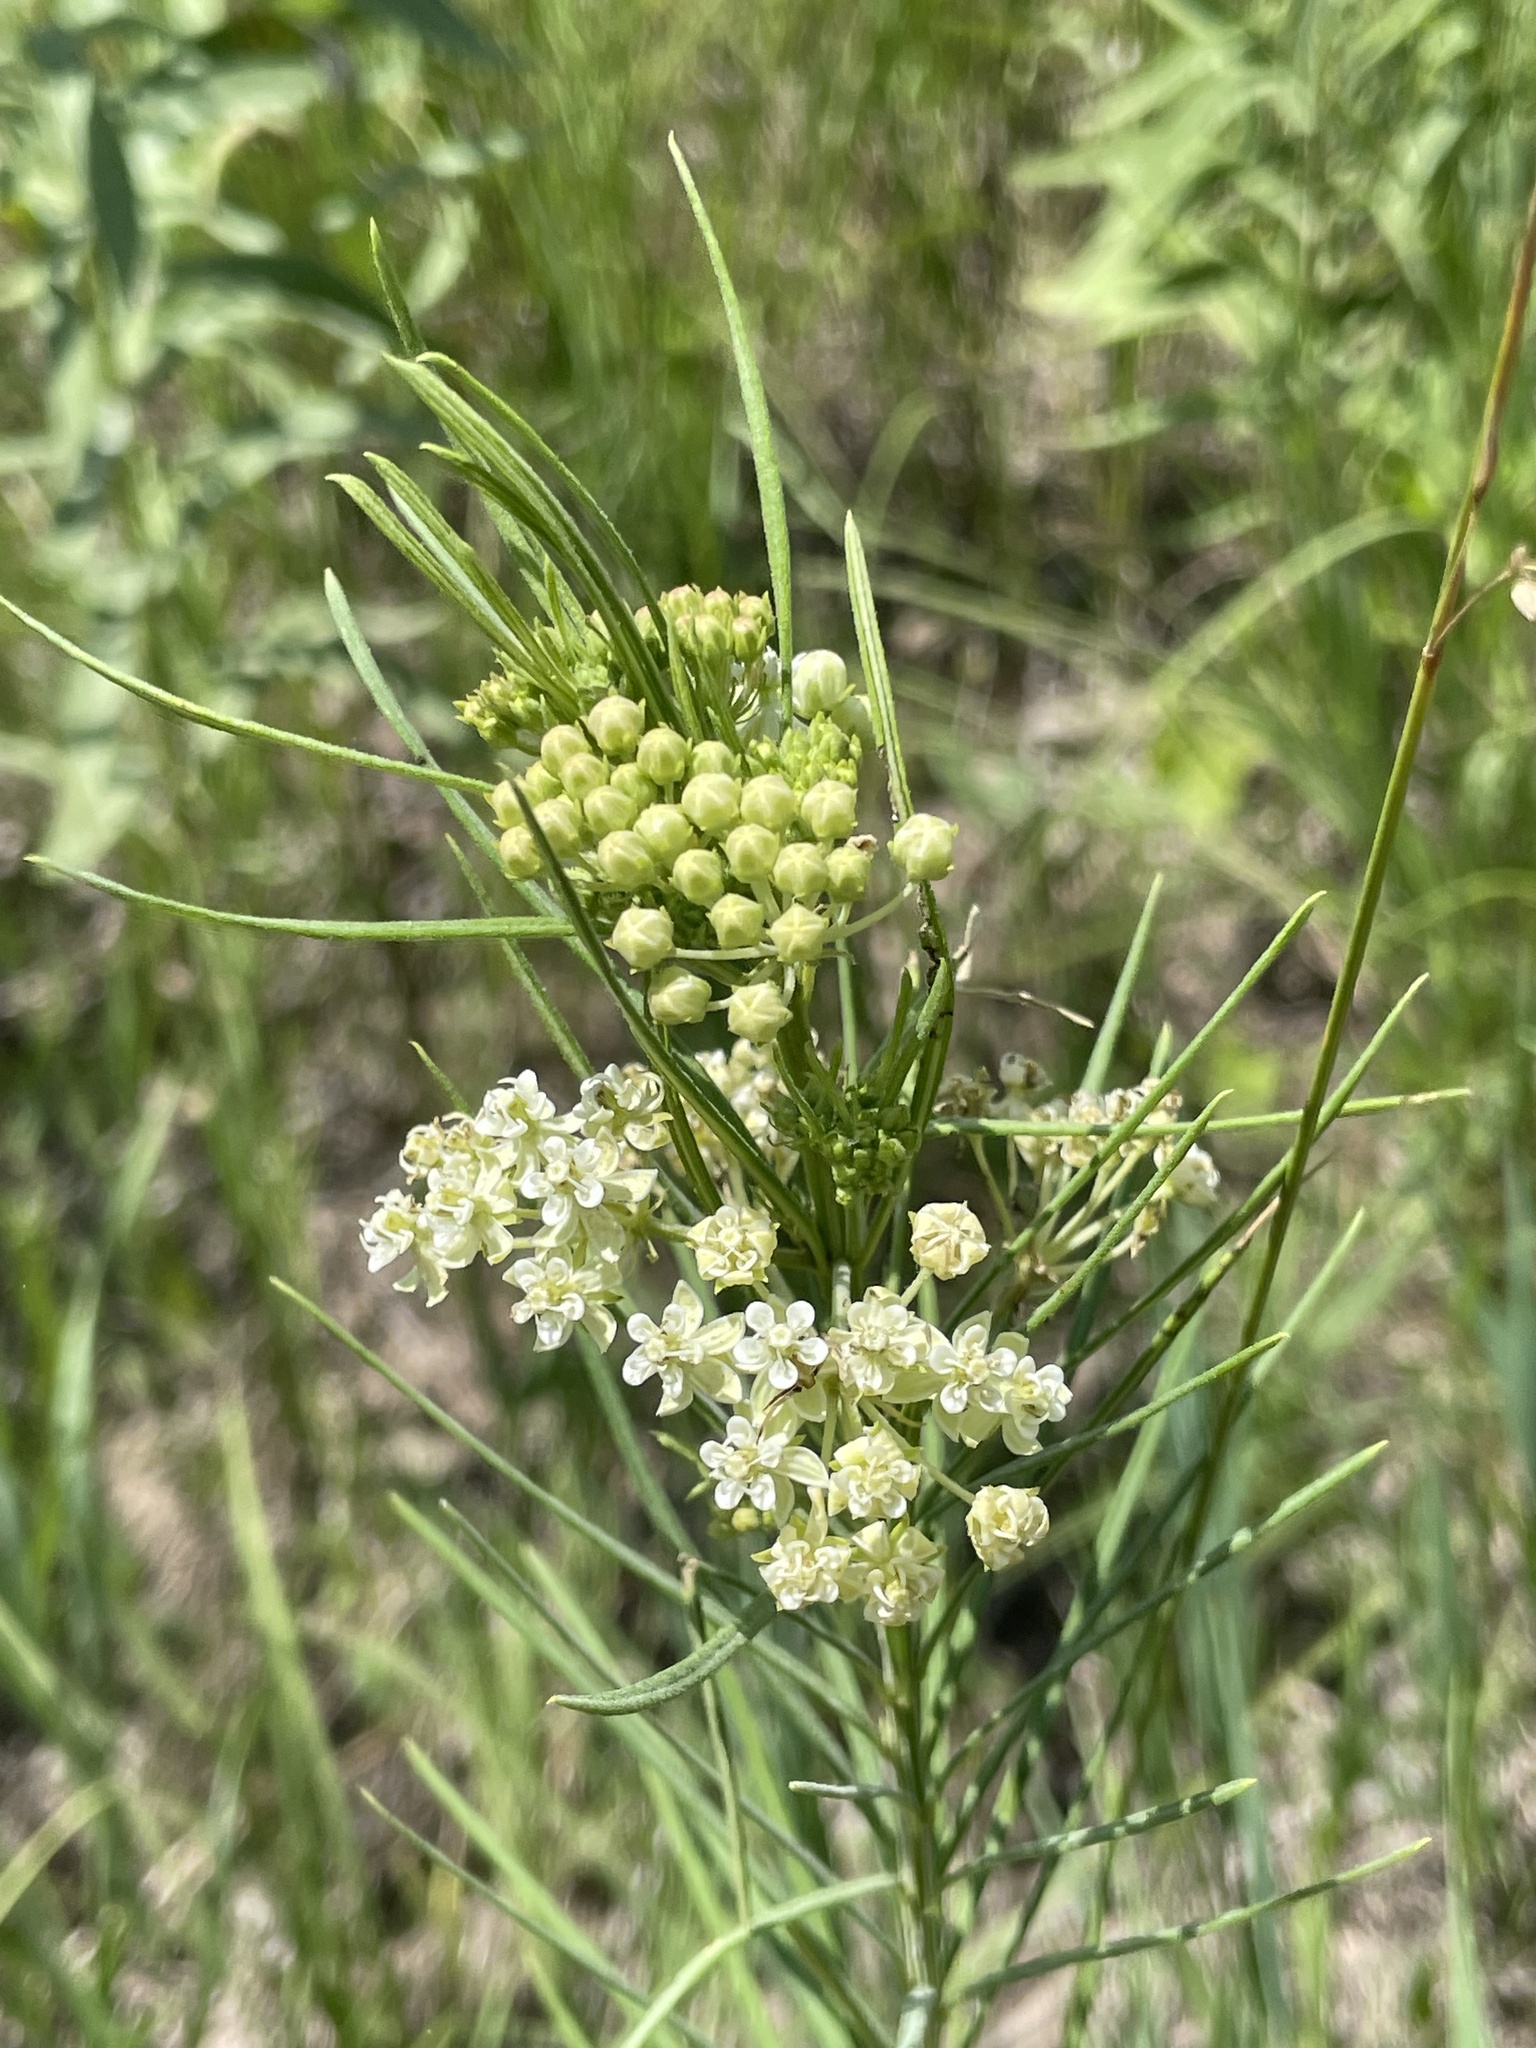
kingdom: Plantae
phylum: Tracheophyta
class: Magnoliopsida
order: Gentianales
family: Apocynaceae
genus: Asclepias
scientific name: Asclepias verticillata
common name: Eastern whorled milkweed
